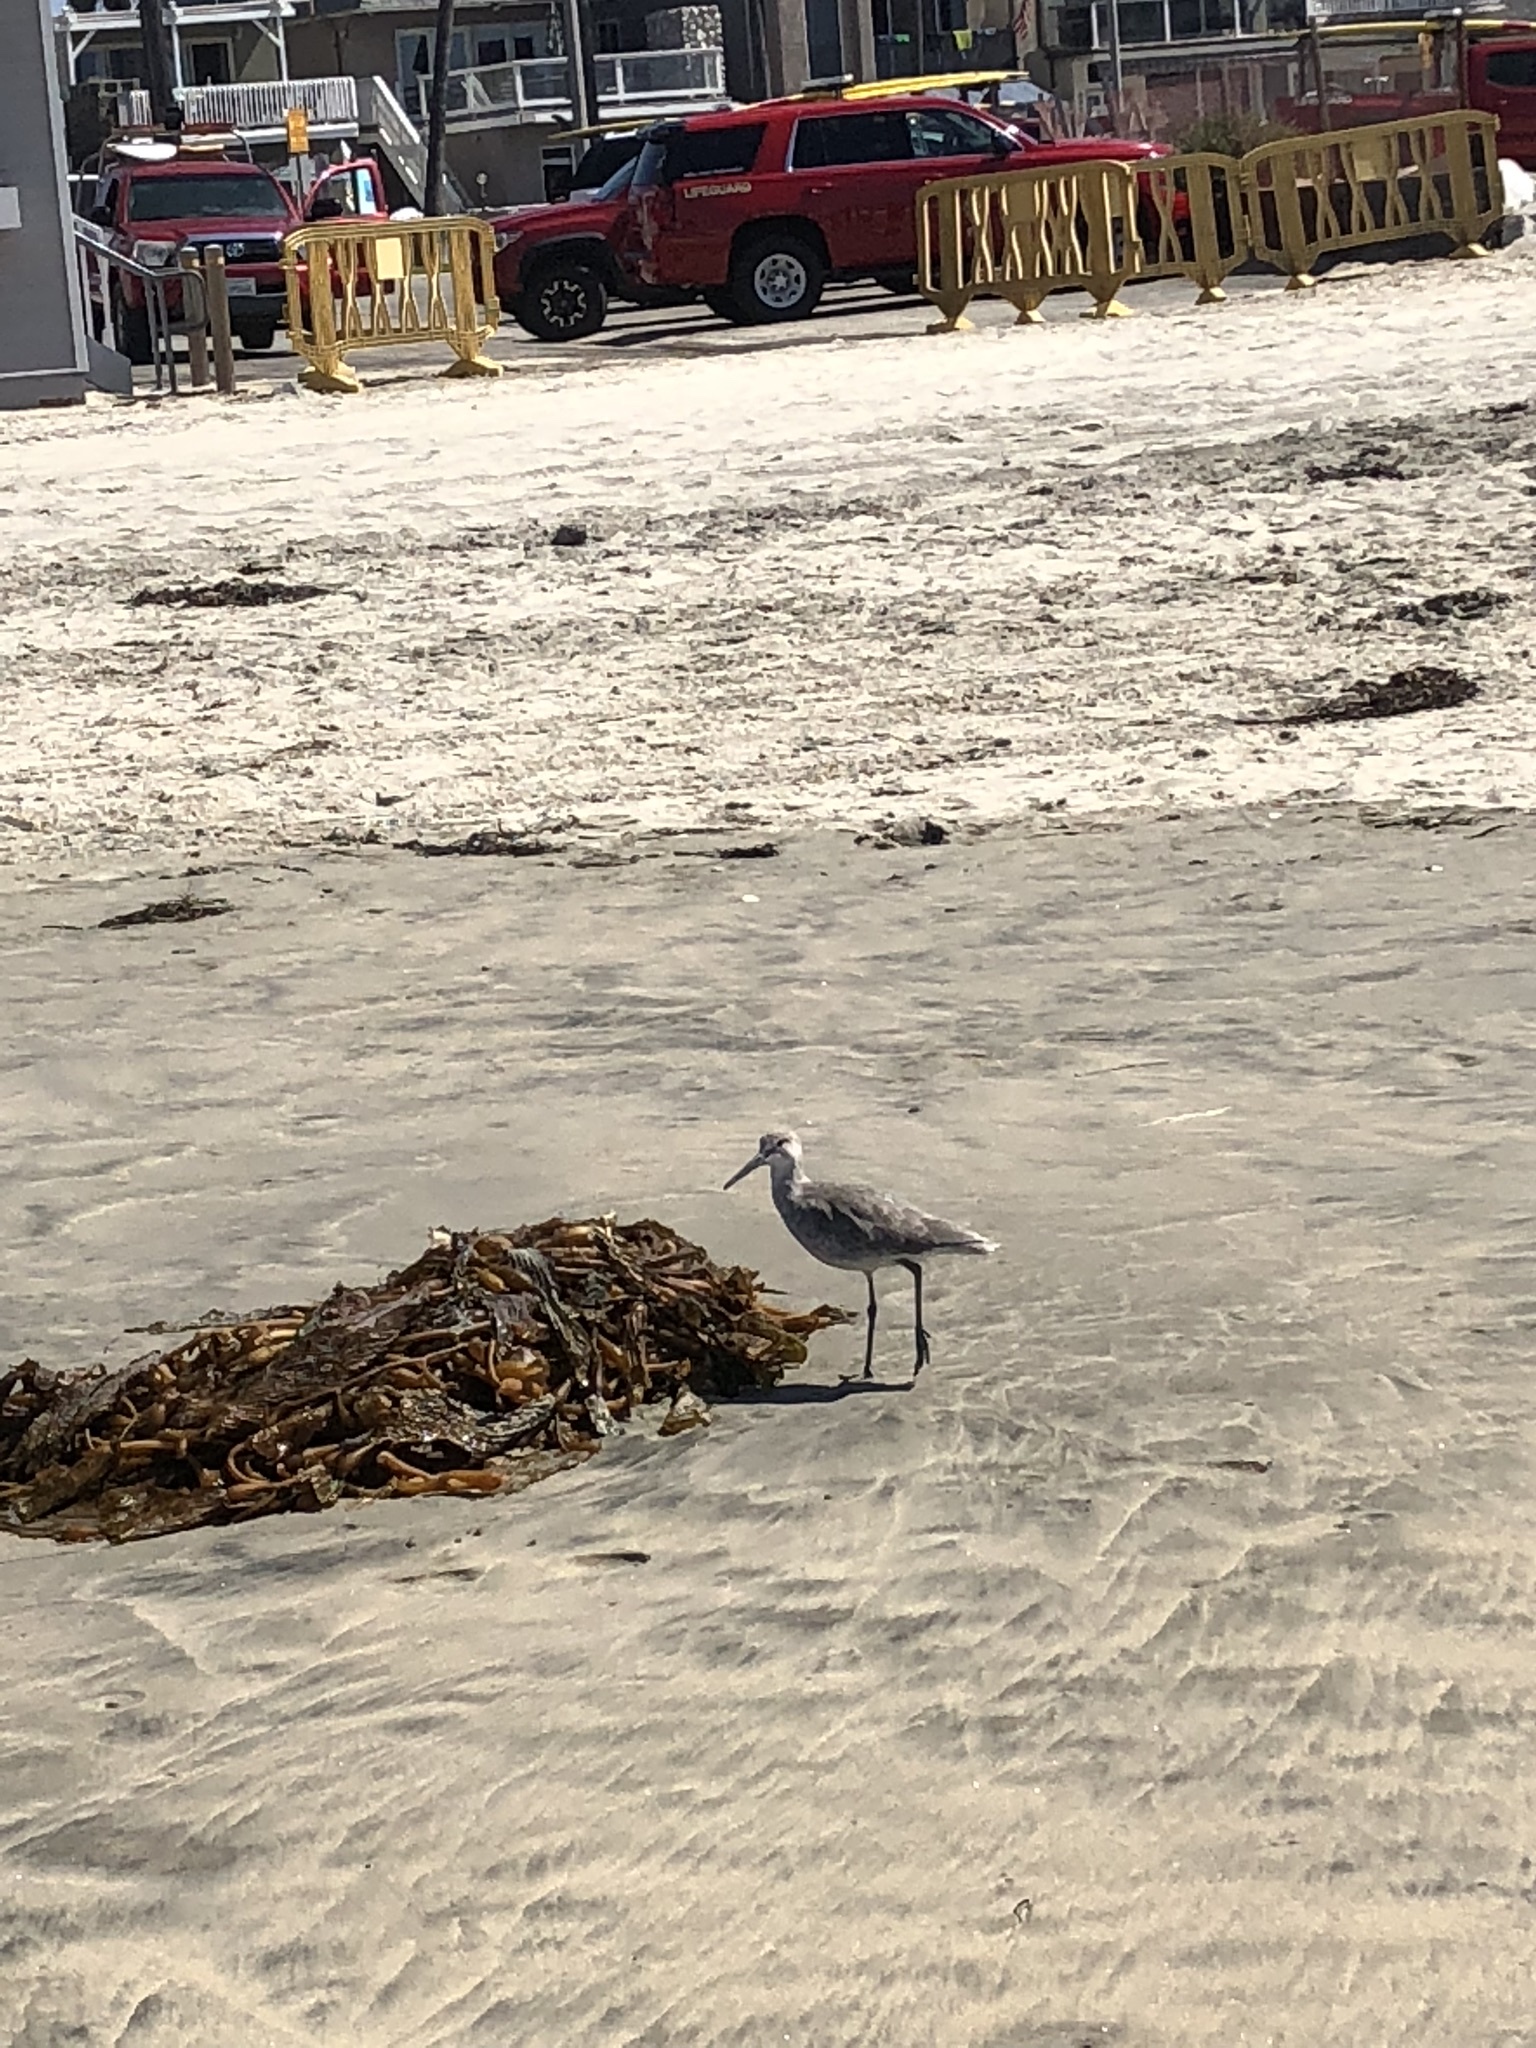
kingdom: Animalia
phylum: Chordata
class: Aves
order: Charadriiformes
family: Scolopacidae
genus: Tringa
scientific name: Tringa semipalmata
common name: Willet
